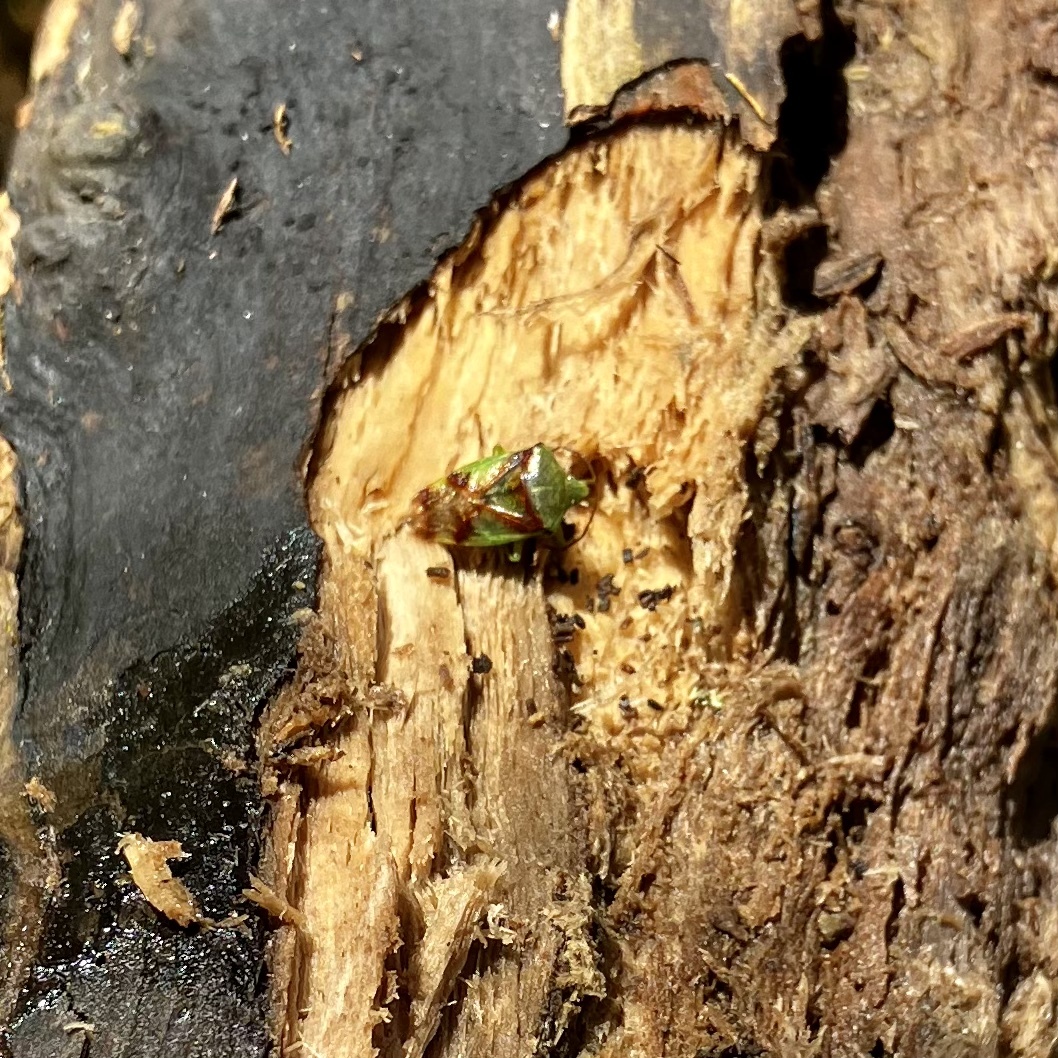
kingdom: Animalia
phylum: Arthropoda
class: Insecta
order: Hemiptera
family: Acanthosomatidae
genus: Elasmostethus
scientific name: Elasmostethus cruciatus
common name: Red-cross shield bug
